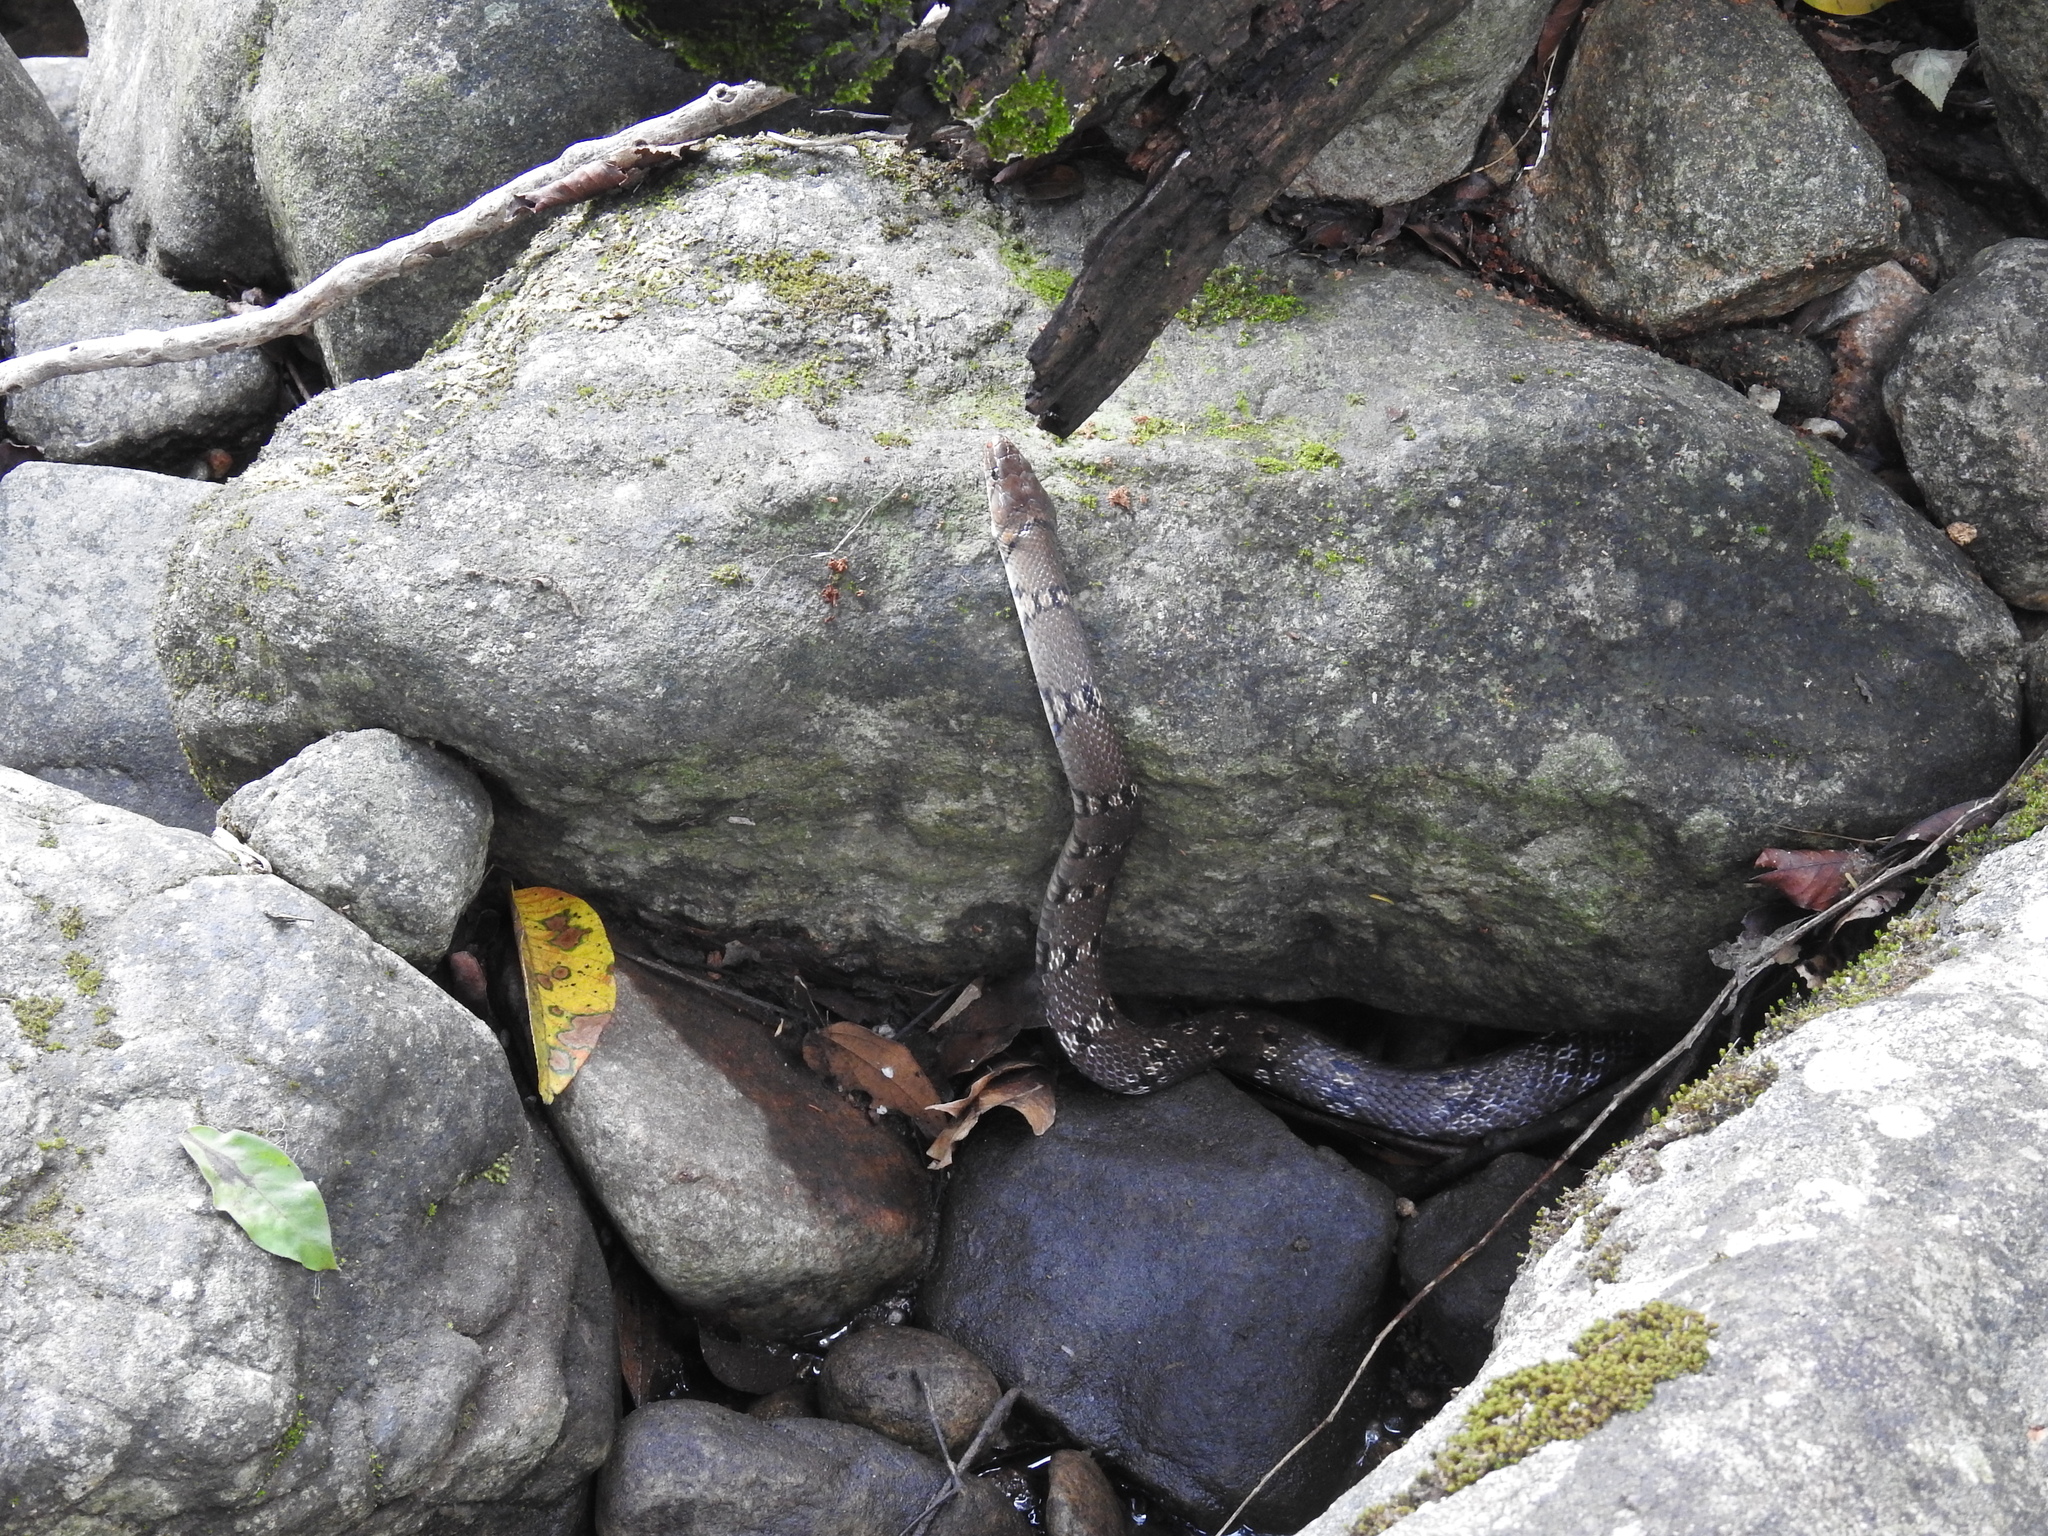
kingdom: Animalia
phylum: Chordata
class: Squamata
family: Colubridae
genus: Coelognathus
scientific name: Coelognathus helena
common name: Trinket snake
